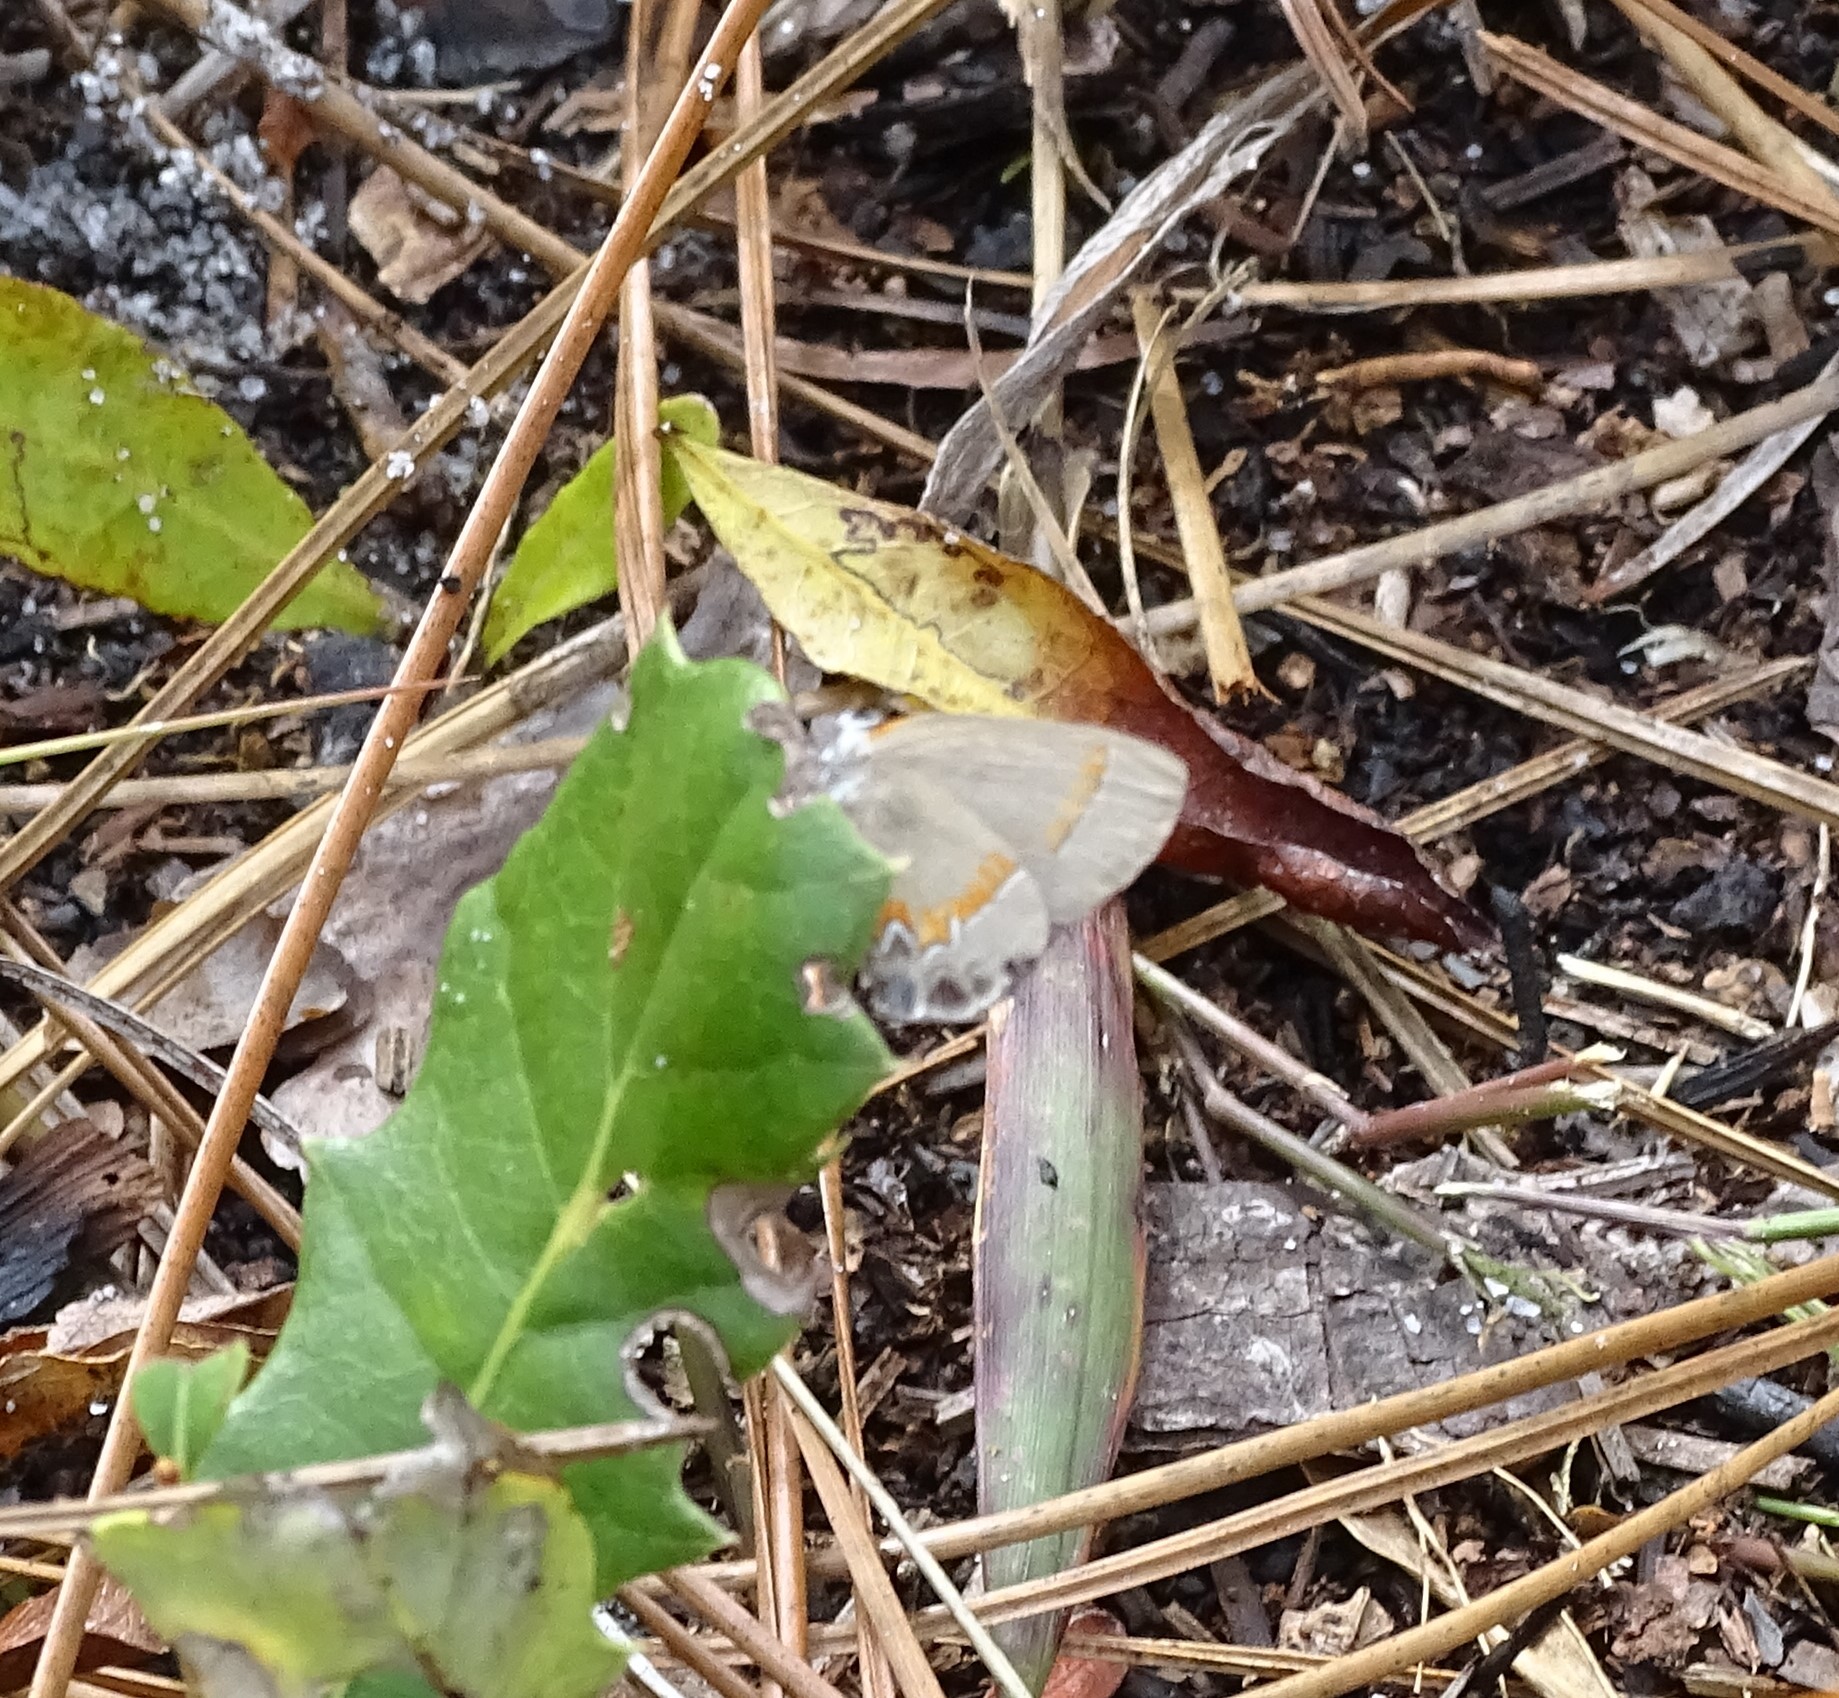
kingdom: Animalia
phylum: Arthropoda
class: Insecta
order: Lepidoptera
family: Lycaenidae
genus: Calycopis
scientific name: Calycopis cecrops
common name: Red-banded hairstreak
